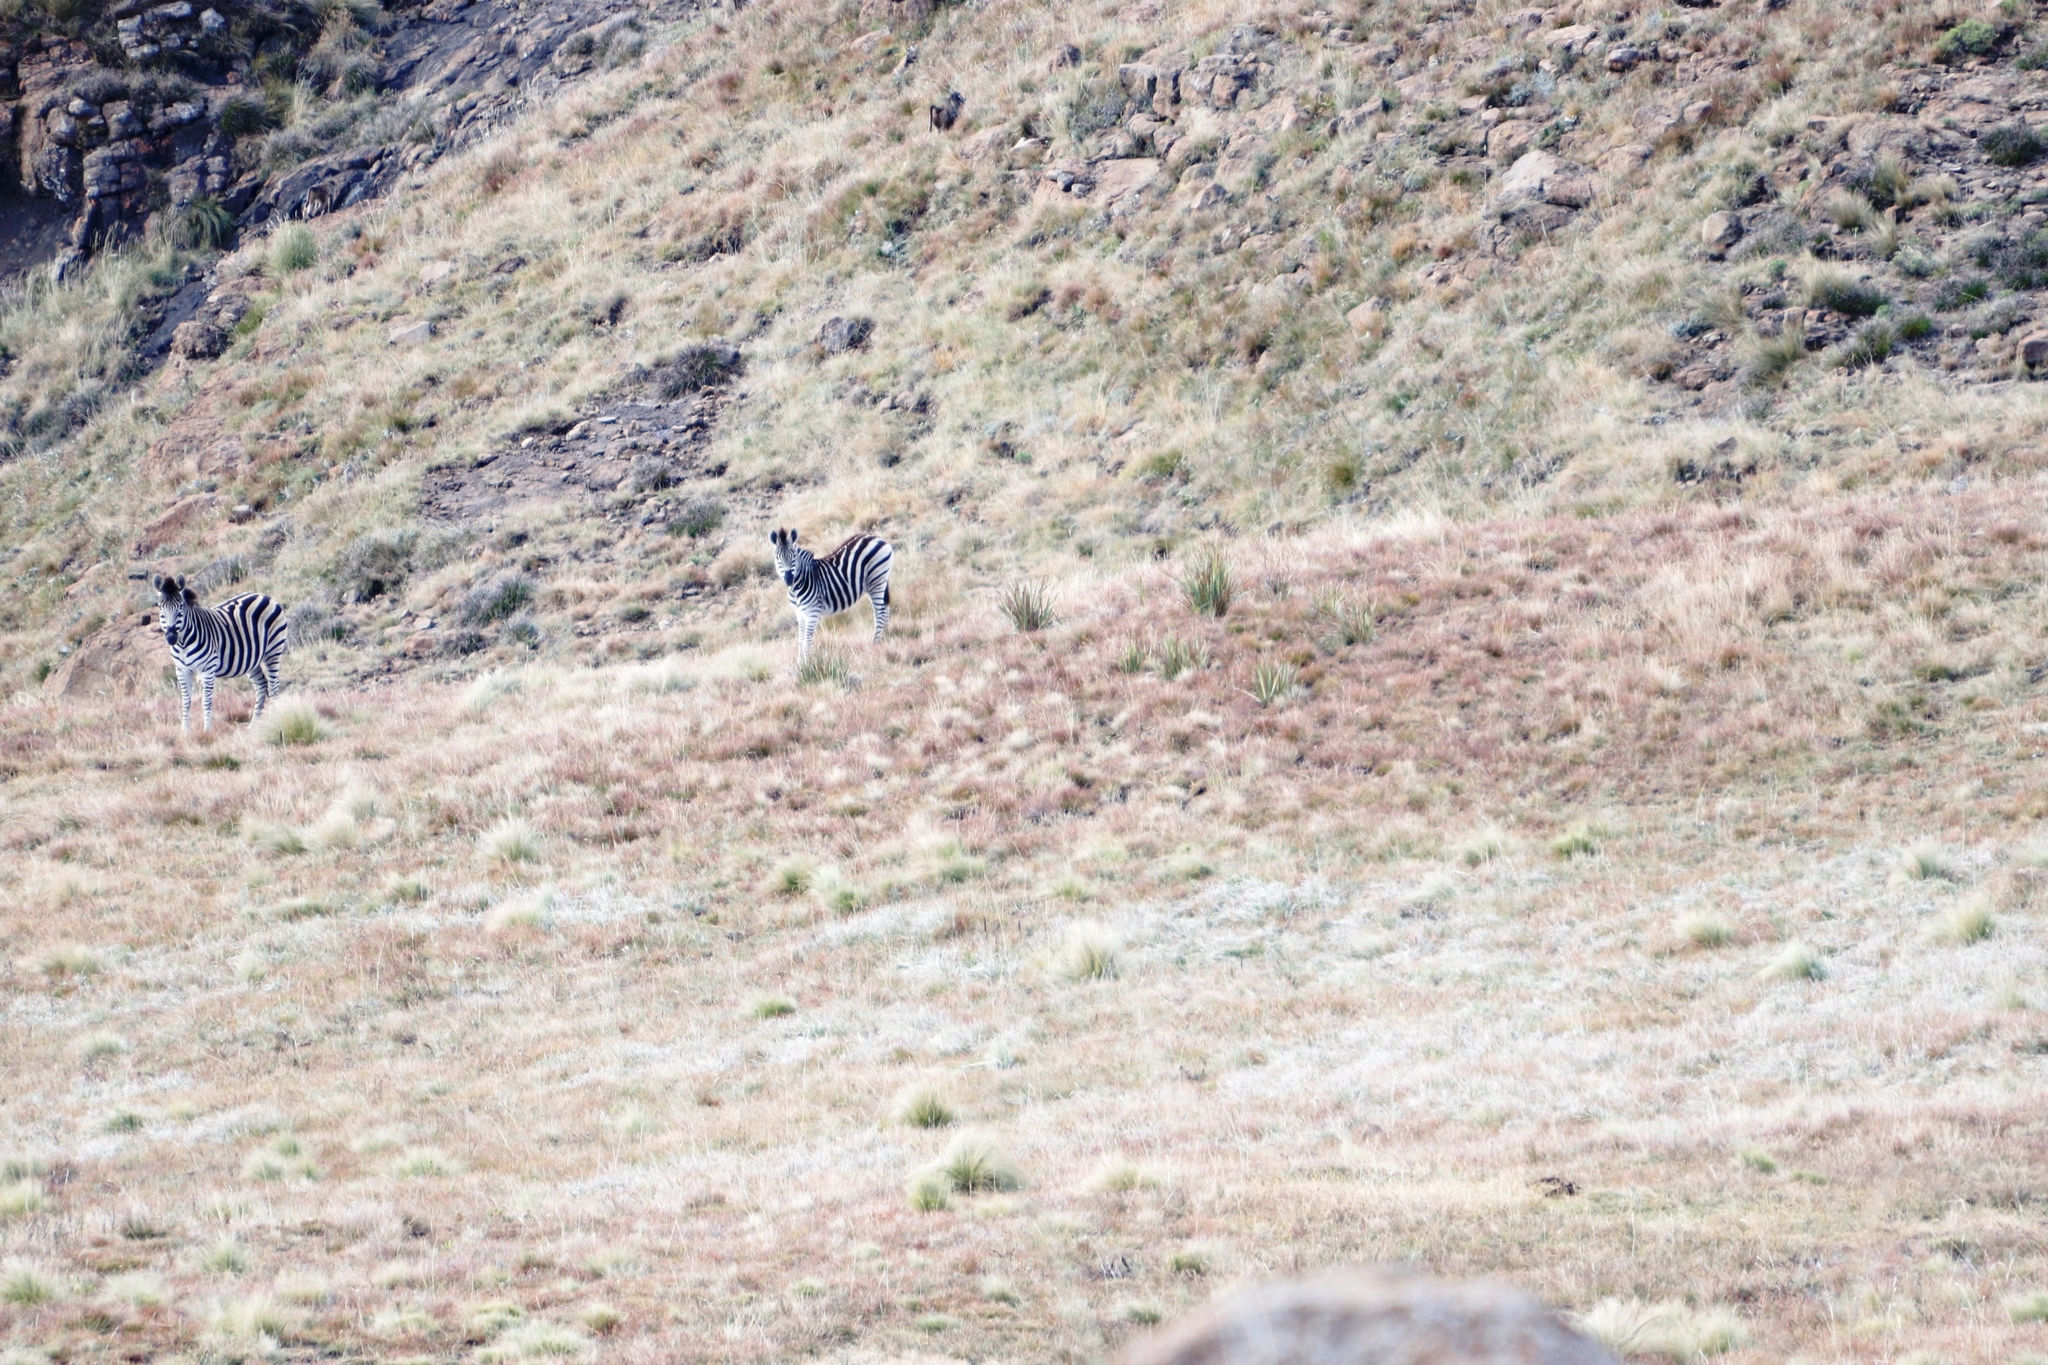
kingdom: Animalia
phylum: Chordata
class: Mammalia
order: Perissodactyla
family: Equidae
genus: Equus
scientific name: Equus quagga
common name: Plains zebra
